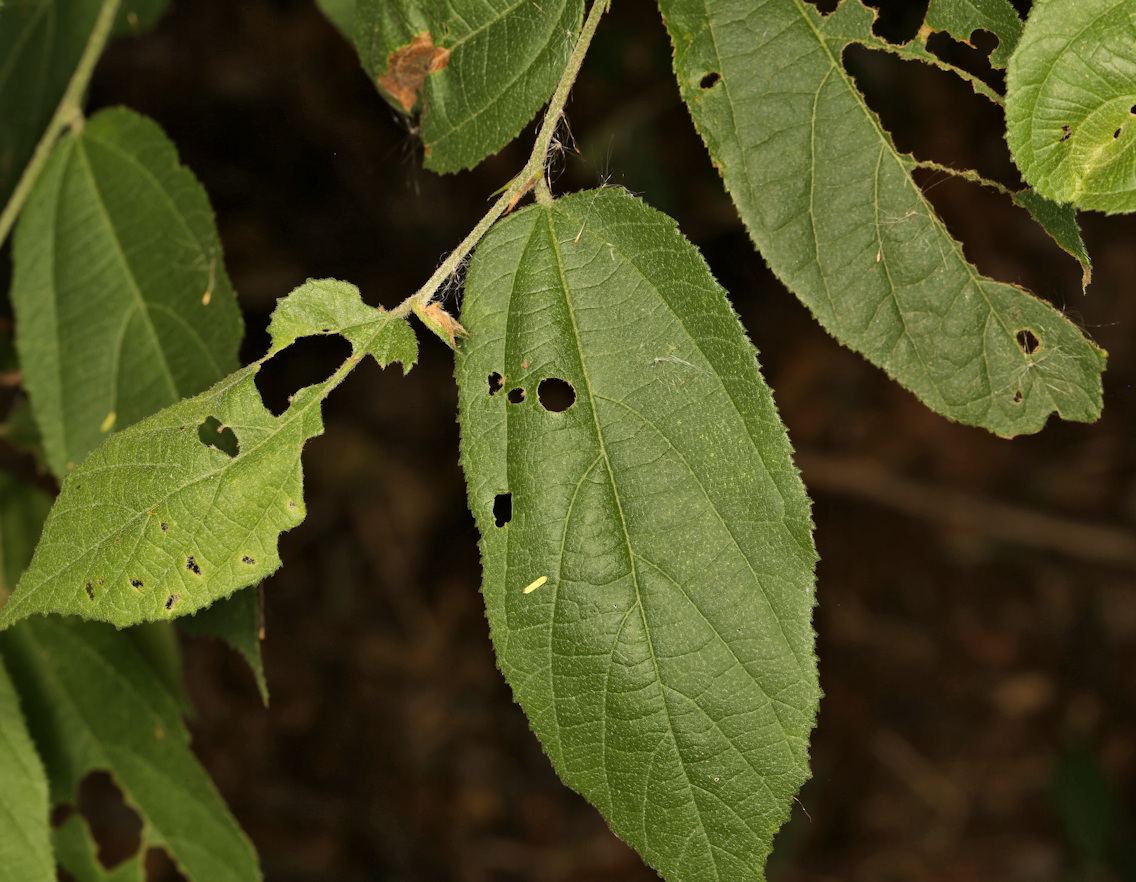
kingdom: Plantae
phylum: Tracheophyta
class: Magnoliopsida
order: Malvales
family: Malvaceae
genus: Grewia
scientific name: Grewia flavescens
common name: Sandpaper raisin
